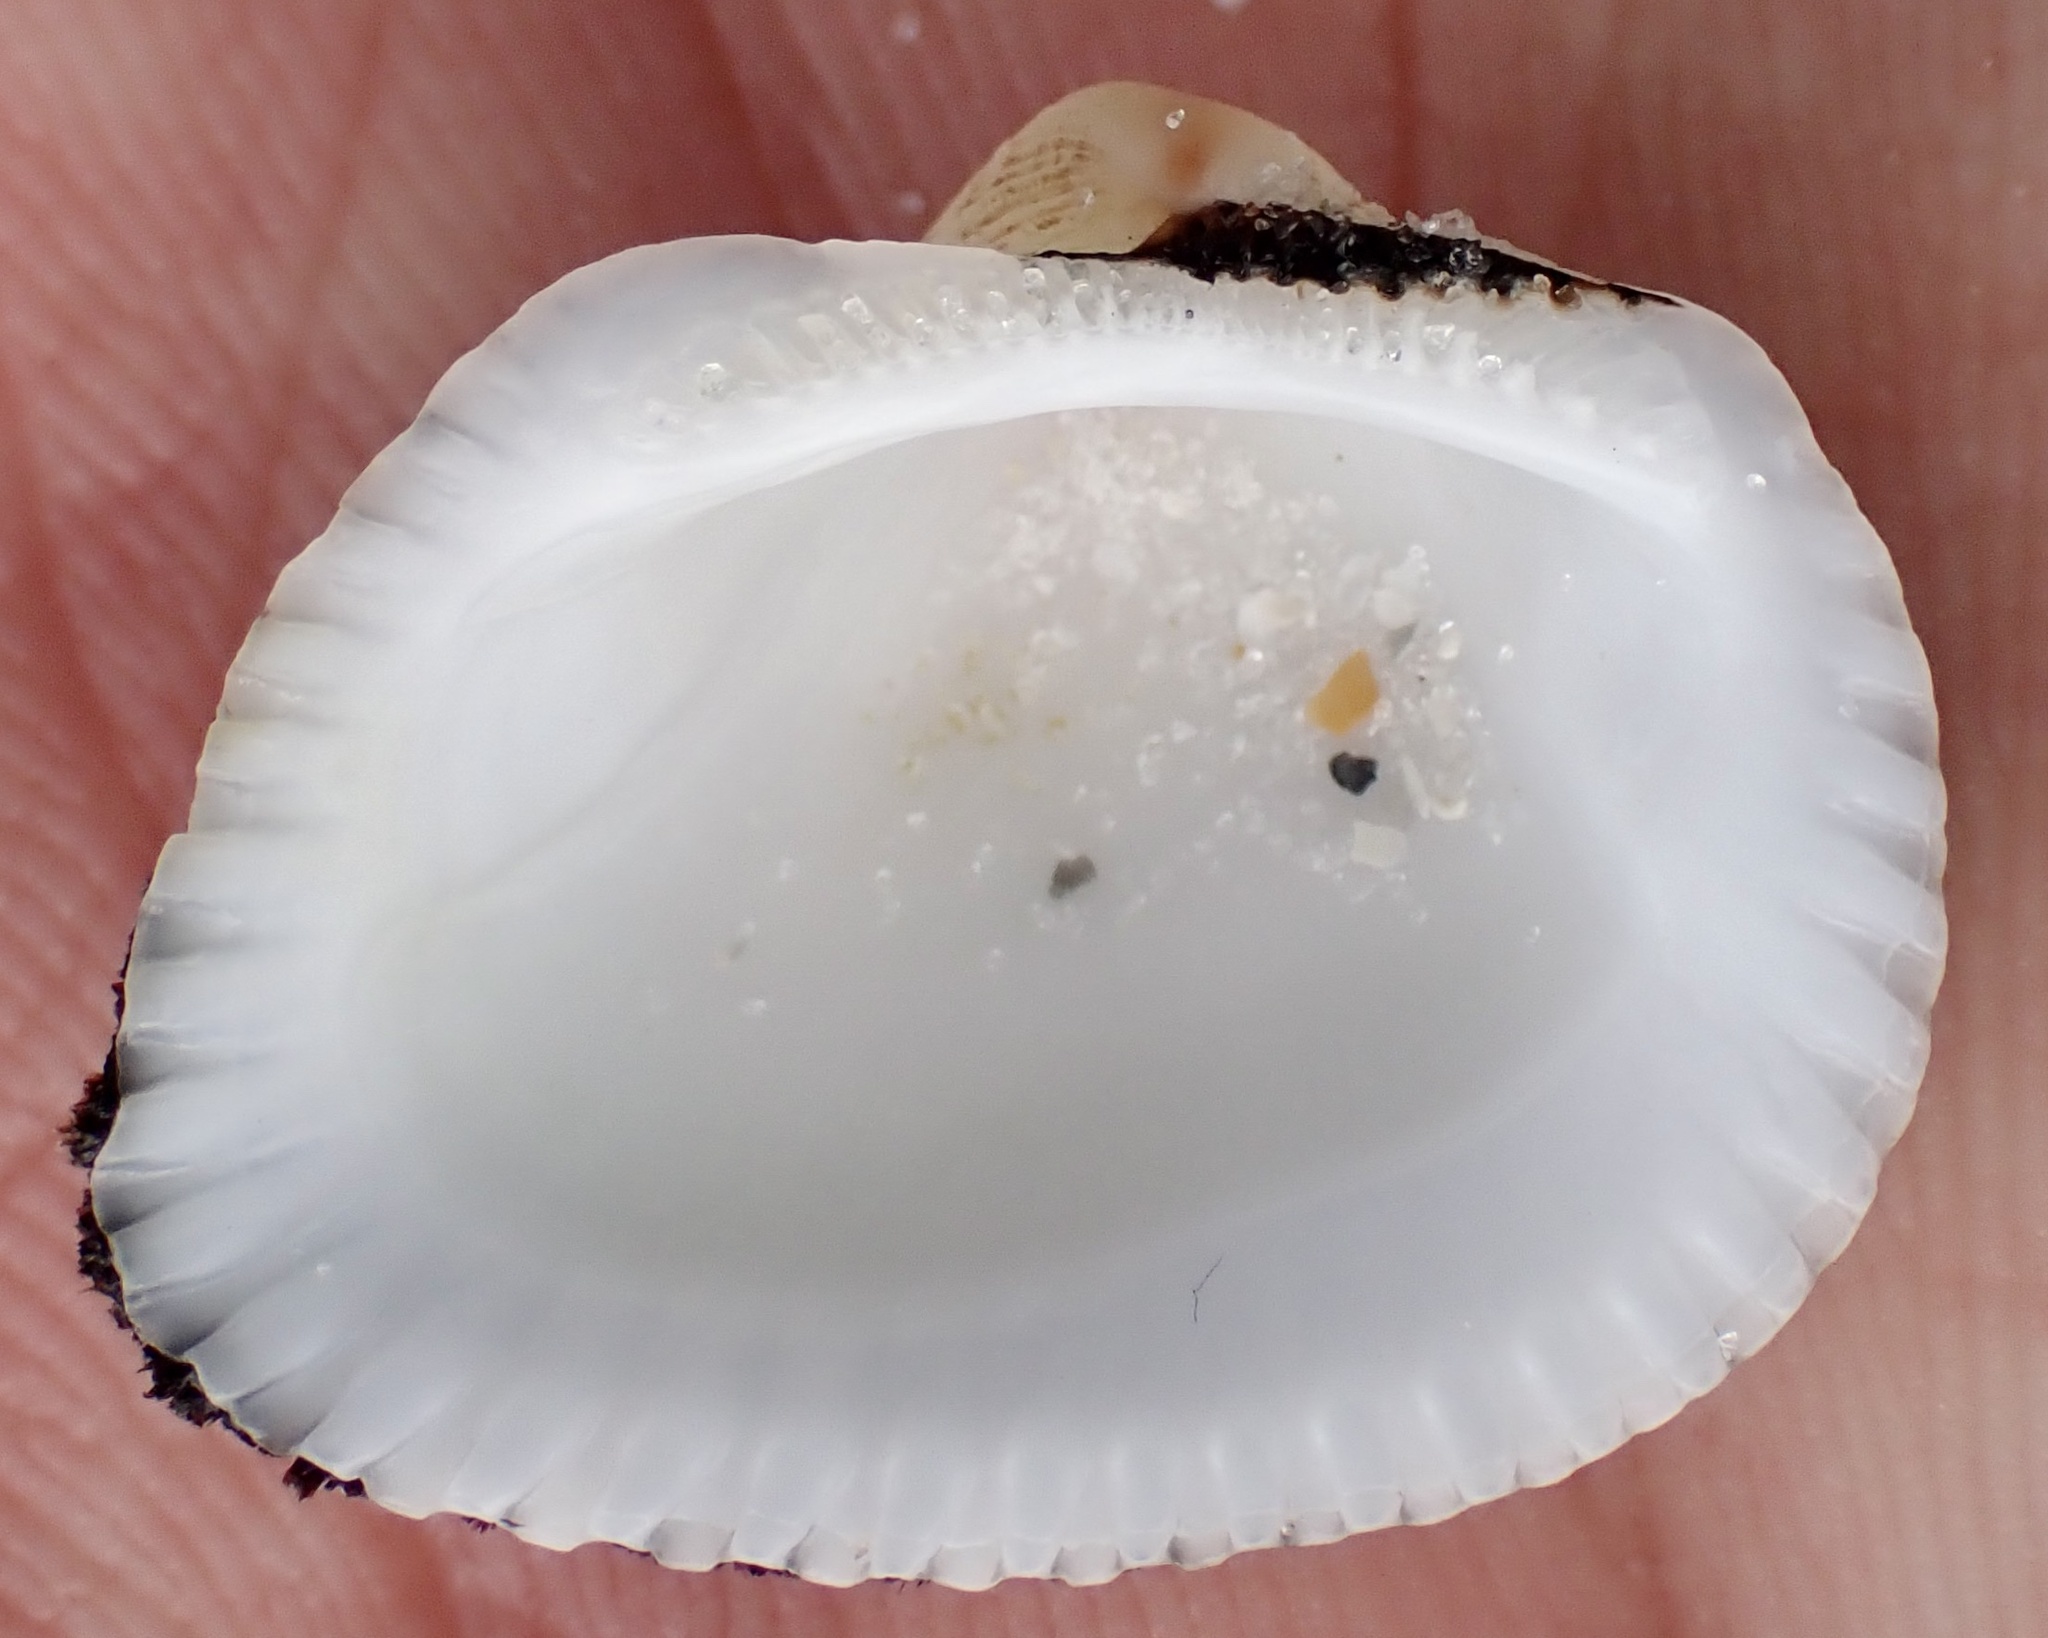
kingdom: Animalia
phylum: Mollusca
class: Bivalvia
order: Arcida
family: Noetiidae
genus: Noetia
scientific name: Noetia ponderosa
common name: Ponderous ark
